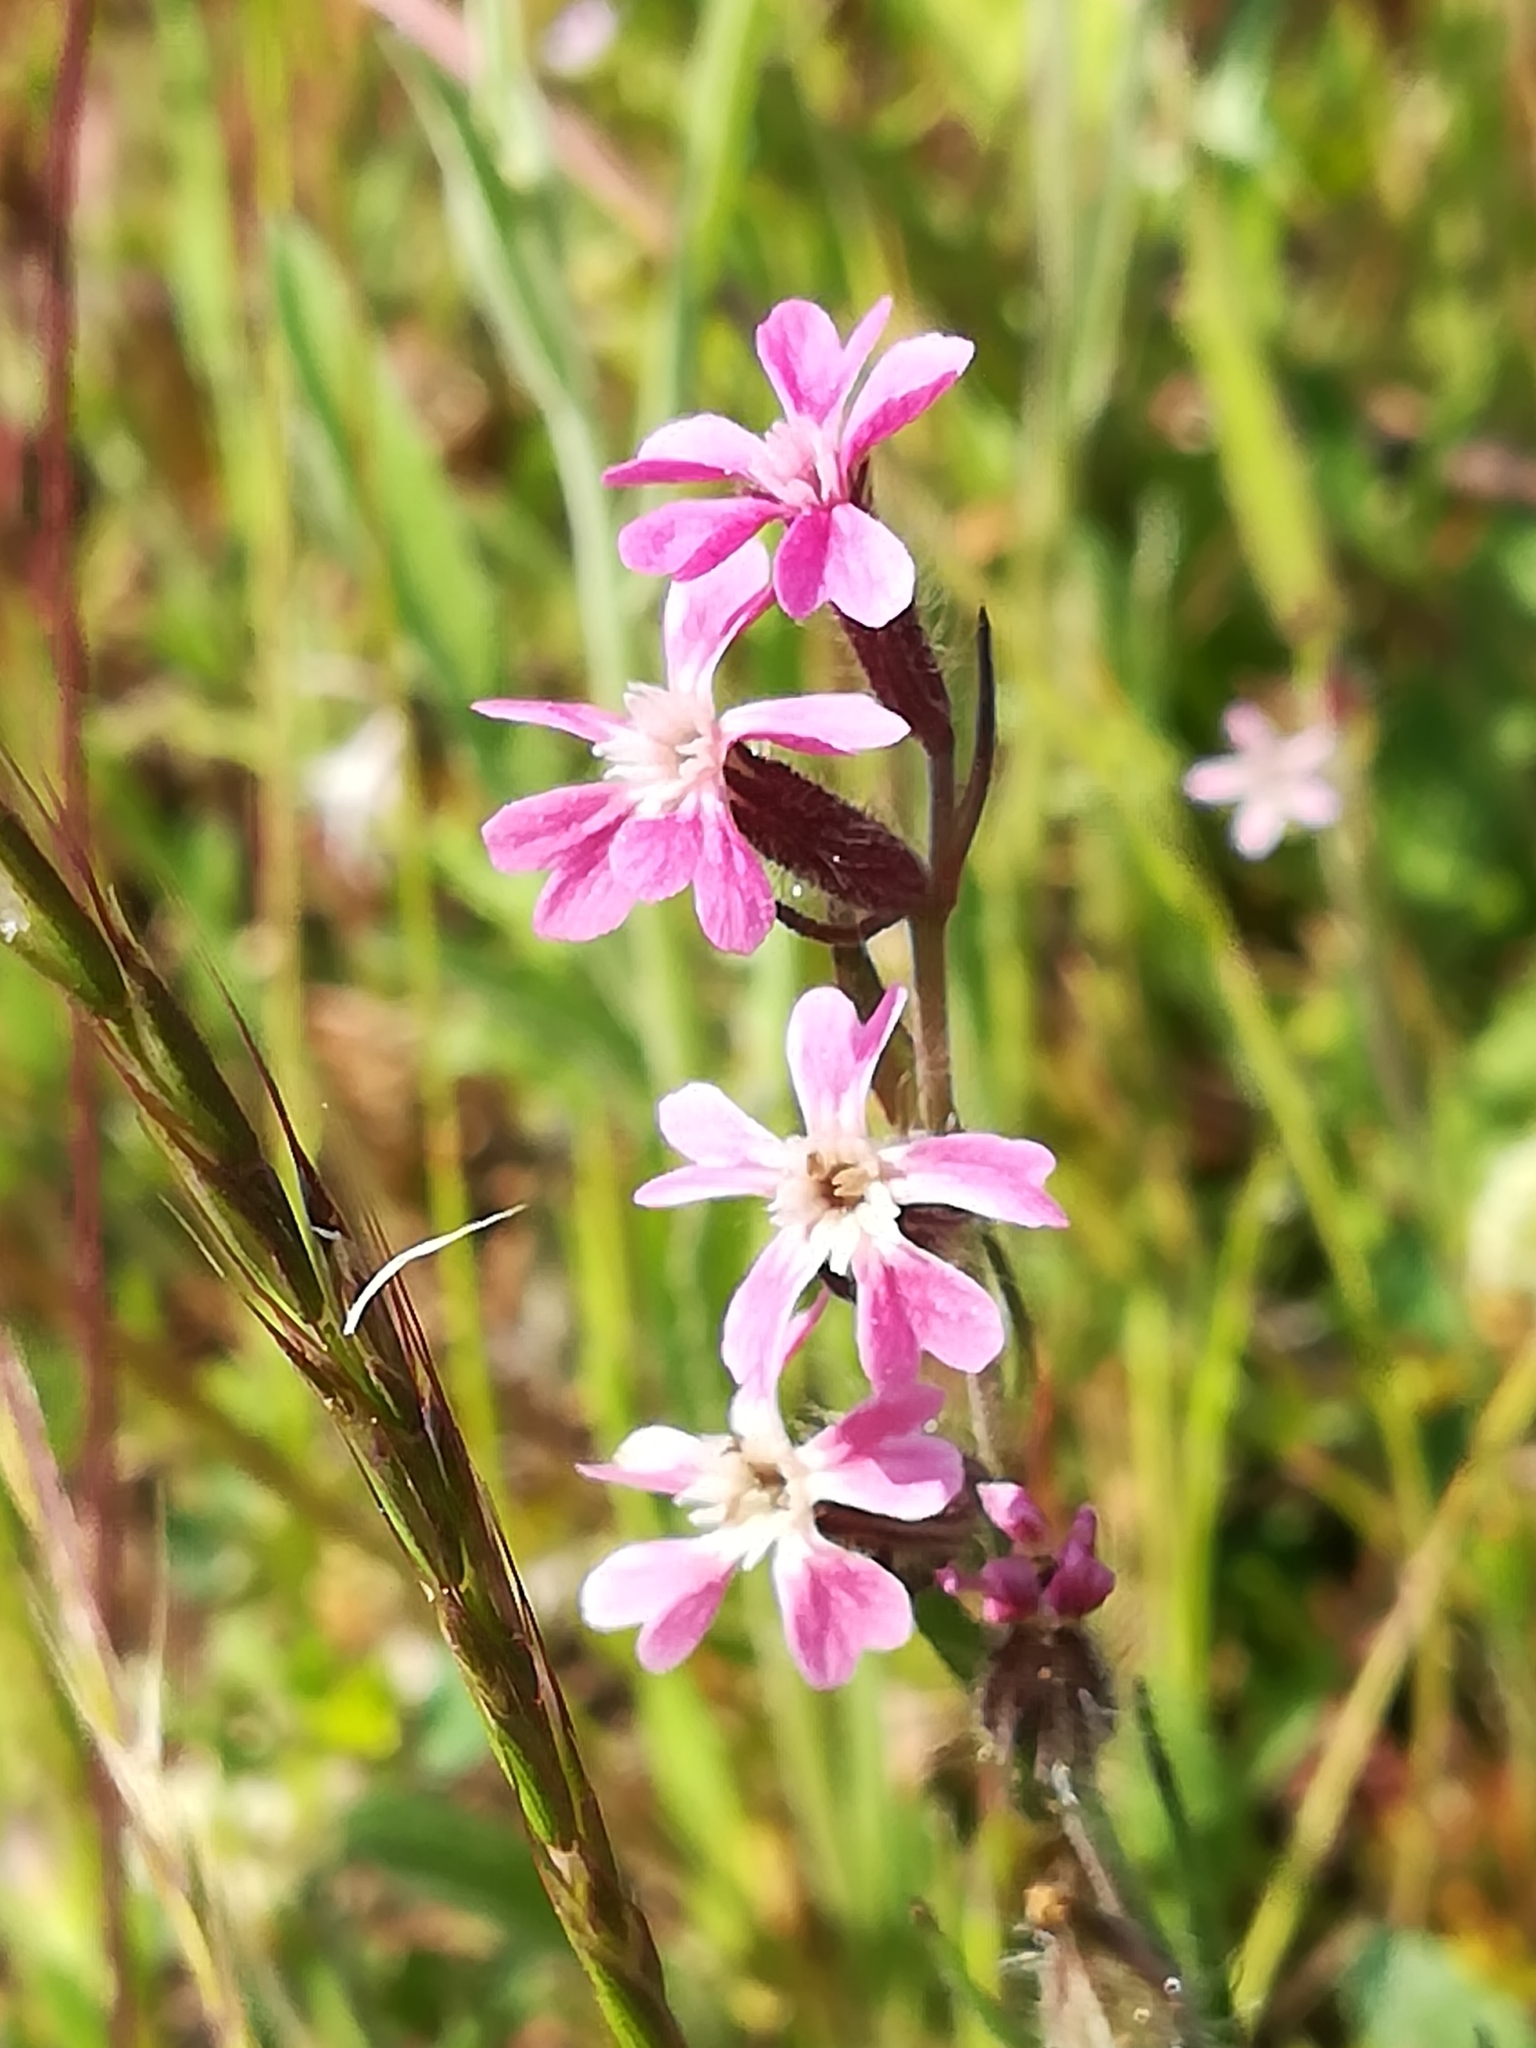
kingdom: Plantae
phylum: Tracheophyta
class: Magnoliopsida
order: Caryophyllales
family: Caryophyllaceae
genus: Silene
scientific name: Silene gallica
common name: Small-flowered catchfly
